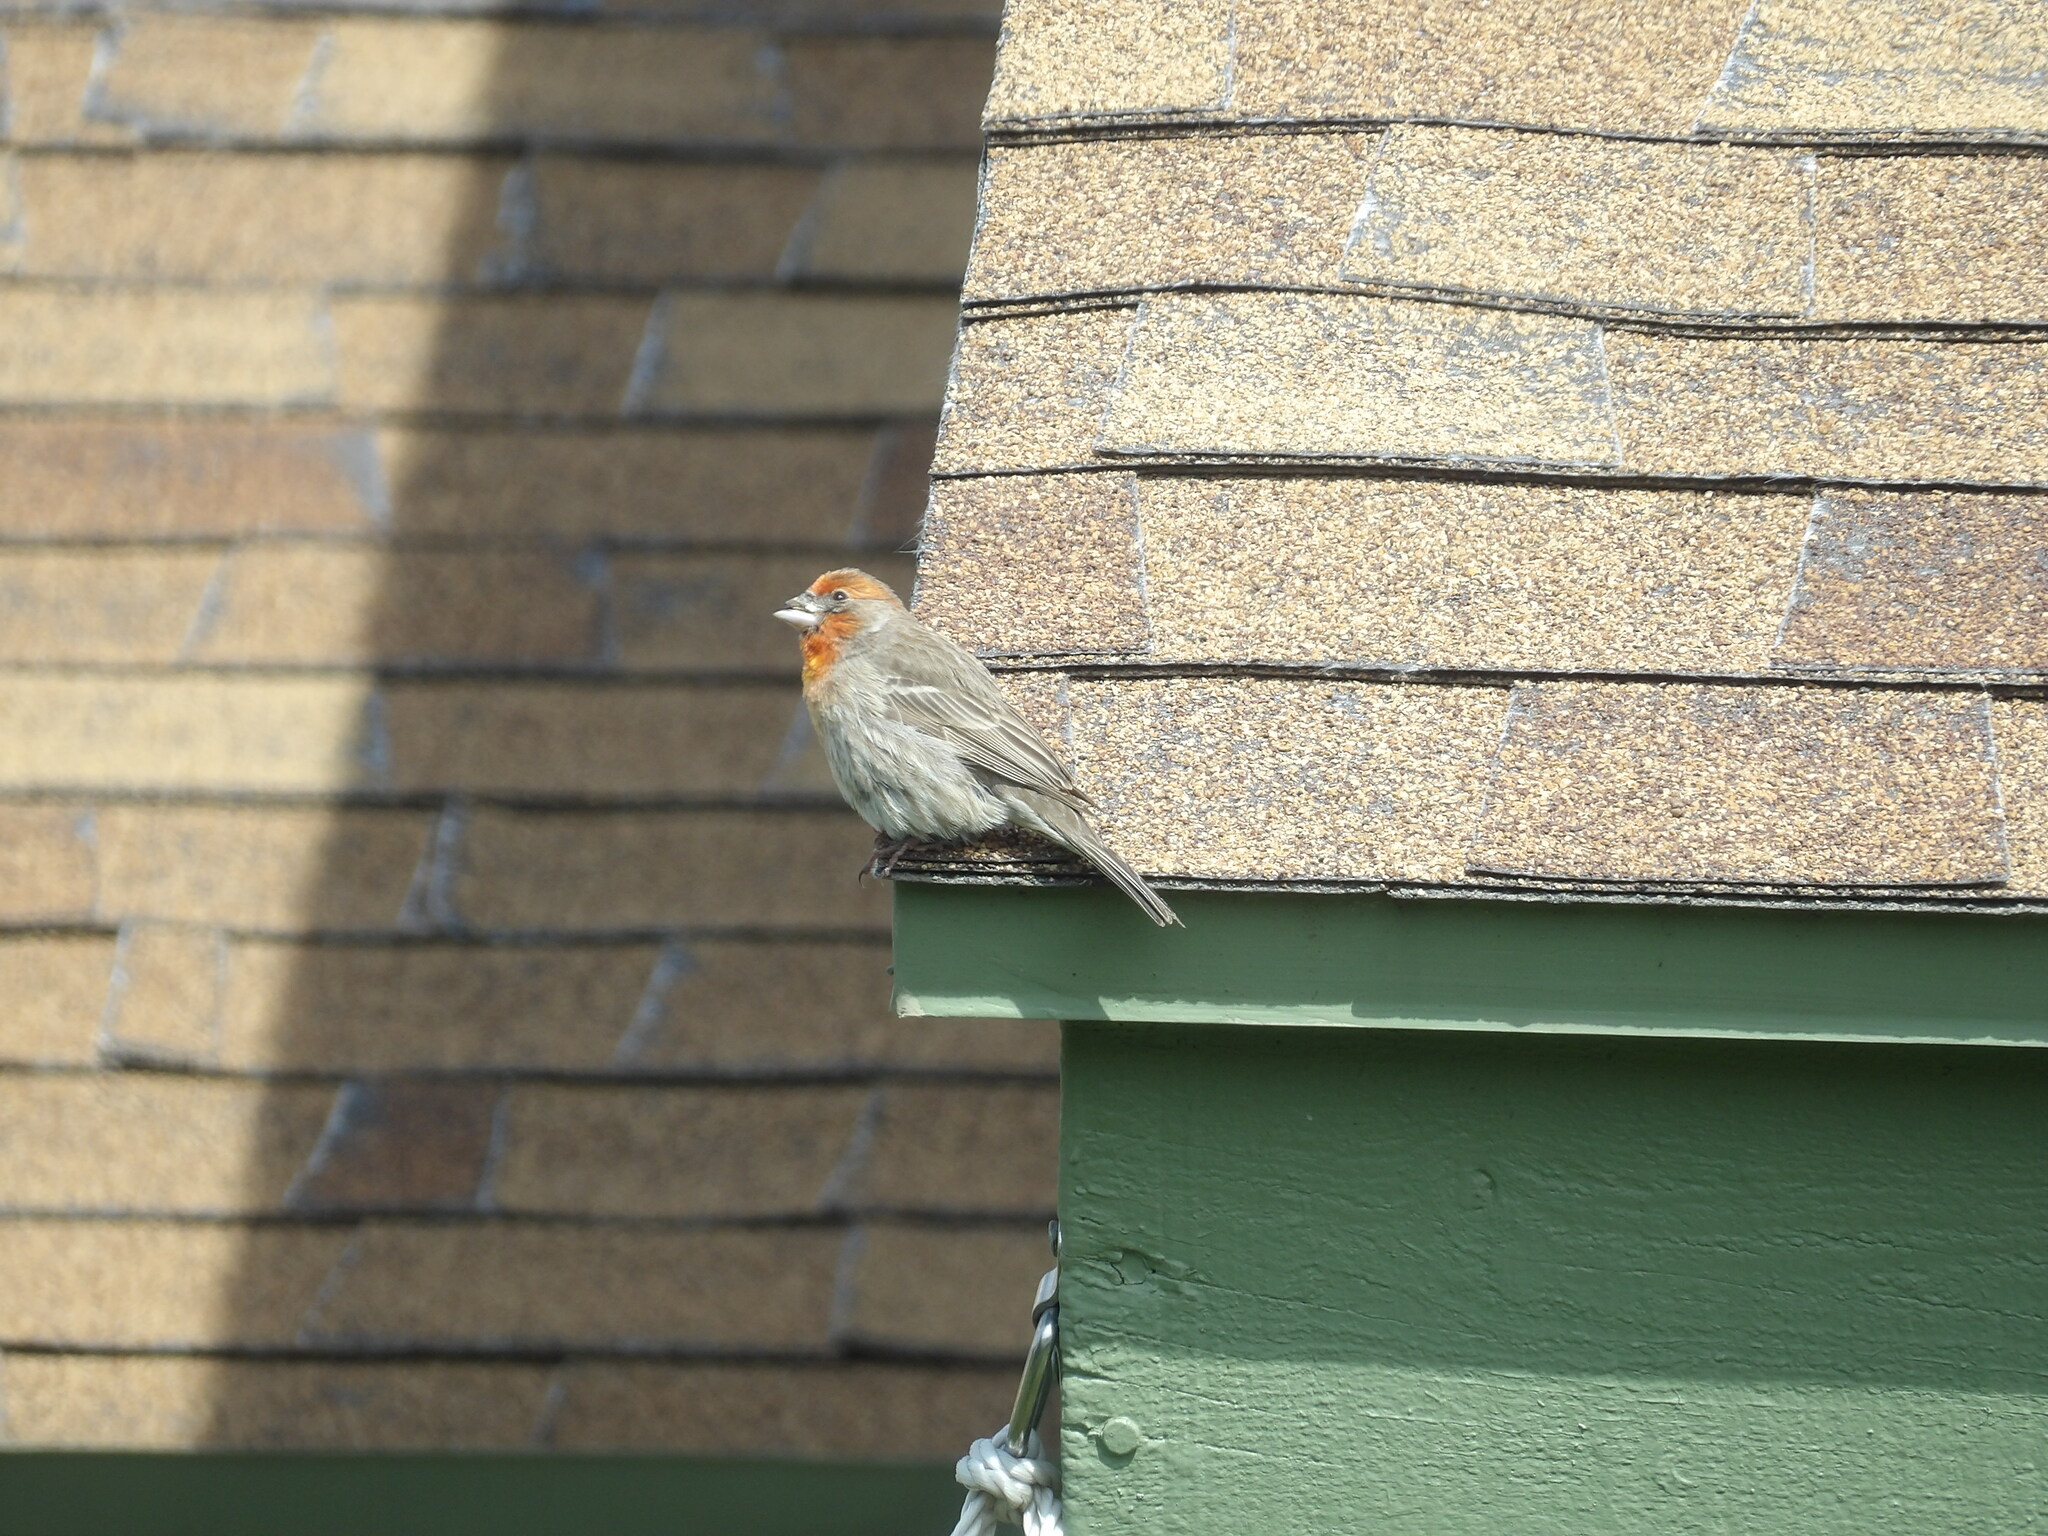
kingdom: Animalia
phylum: Chordata
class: Aves
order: Passeriformes
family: Fringillidae
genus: Haemorhous
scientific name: Haemorhous mexicanus
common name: House finch
